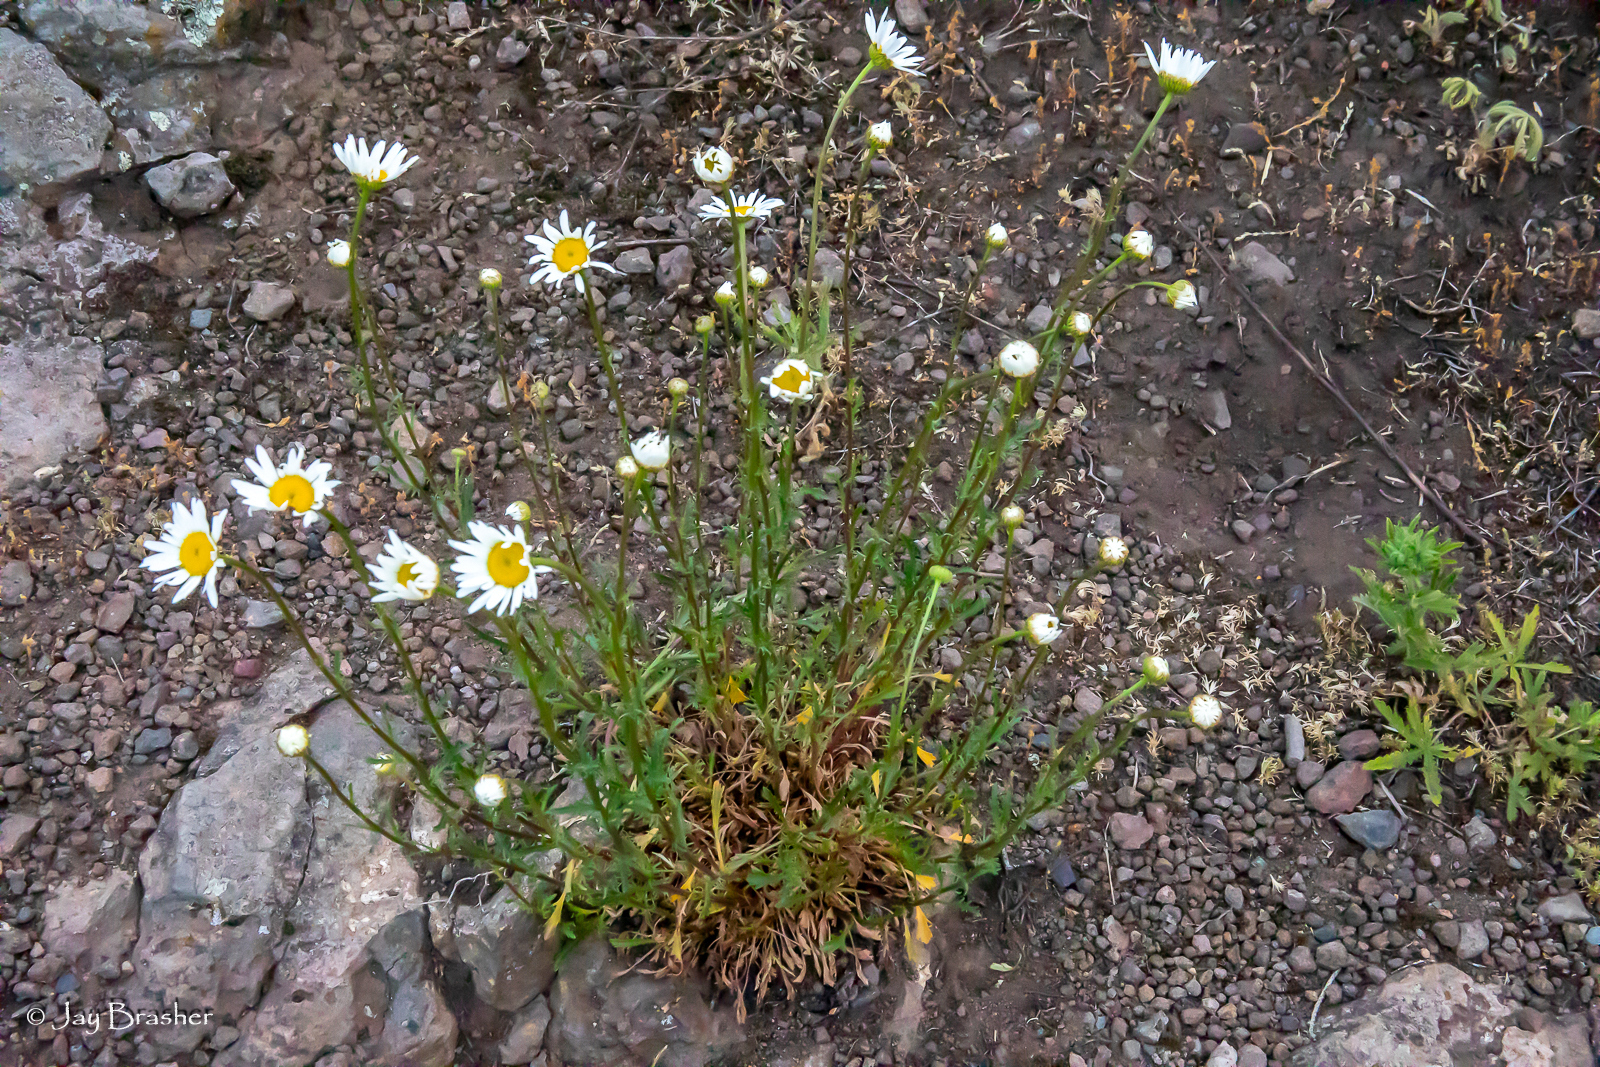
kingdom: Plantae
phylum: Tracheophyta
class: Magnoliopsida
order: Asterales
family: Asteraceae
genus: Leucanthemum
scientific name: Leucanthemum vulgare
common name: Oxeye daisy
